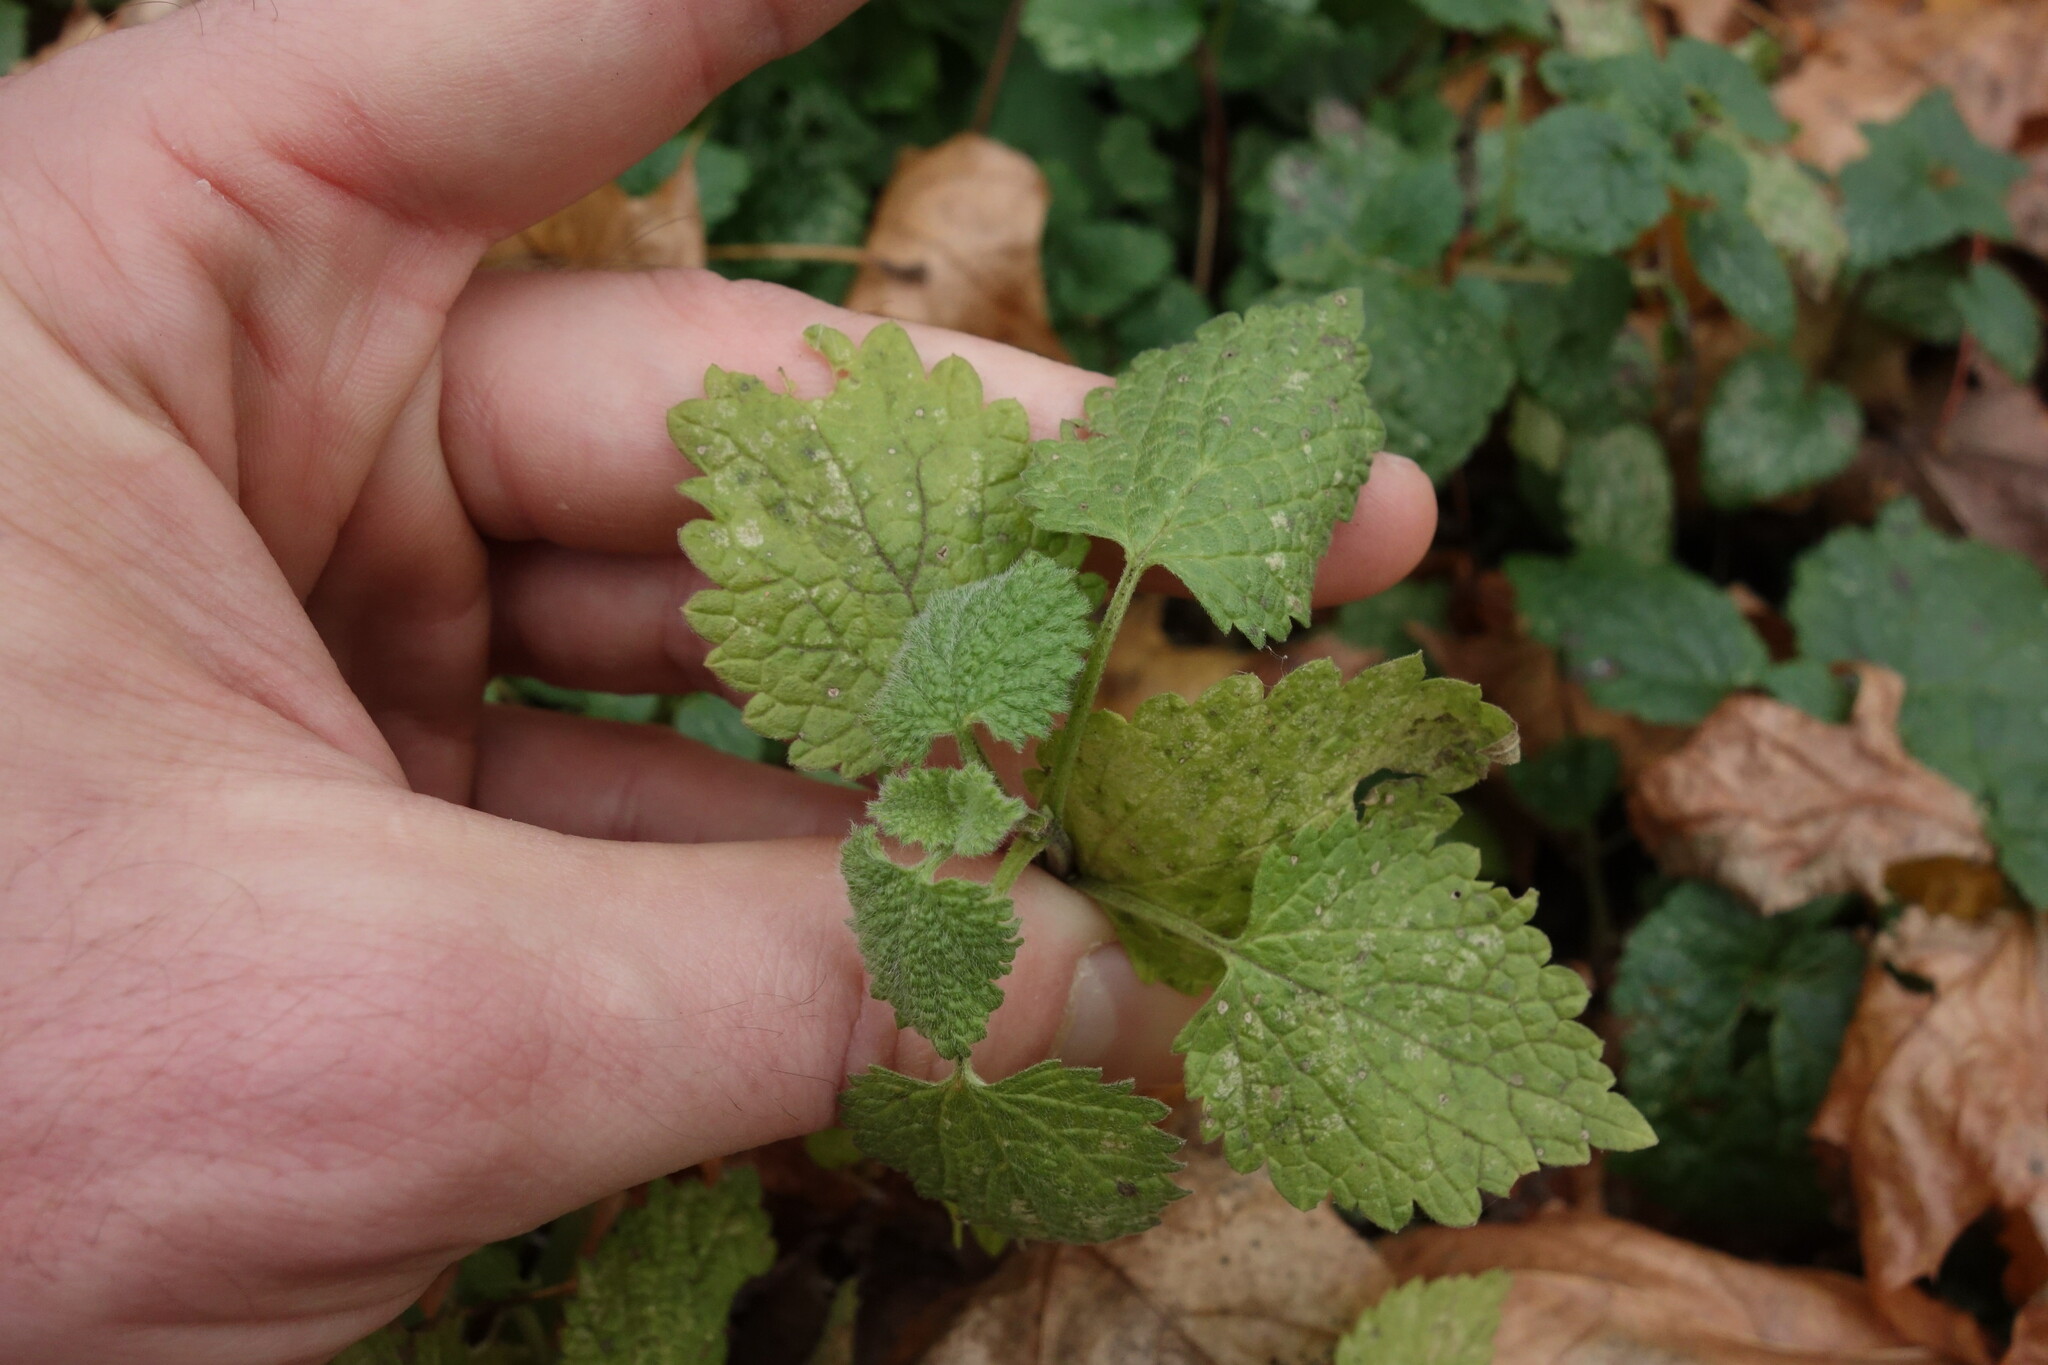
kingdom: Plantae
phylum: Tracheophyta
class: Magnoliopsida
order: Lamiales
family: Lamiaceae
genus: Ballota
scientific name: Ballota nigra
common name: Black horehound
